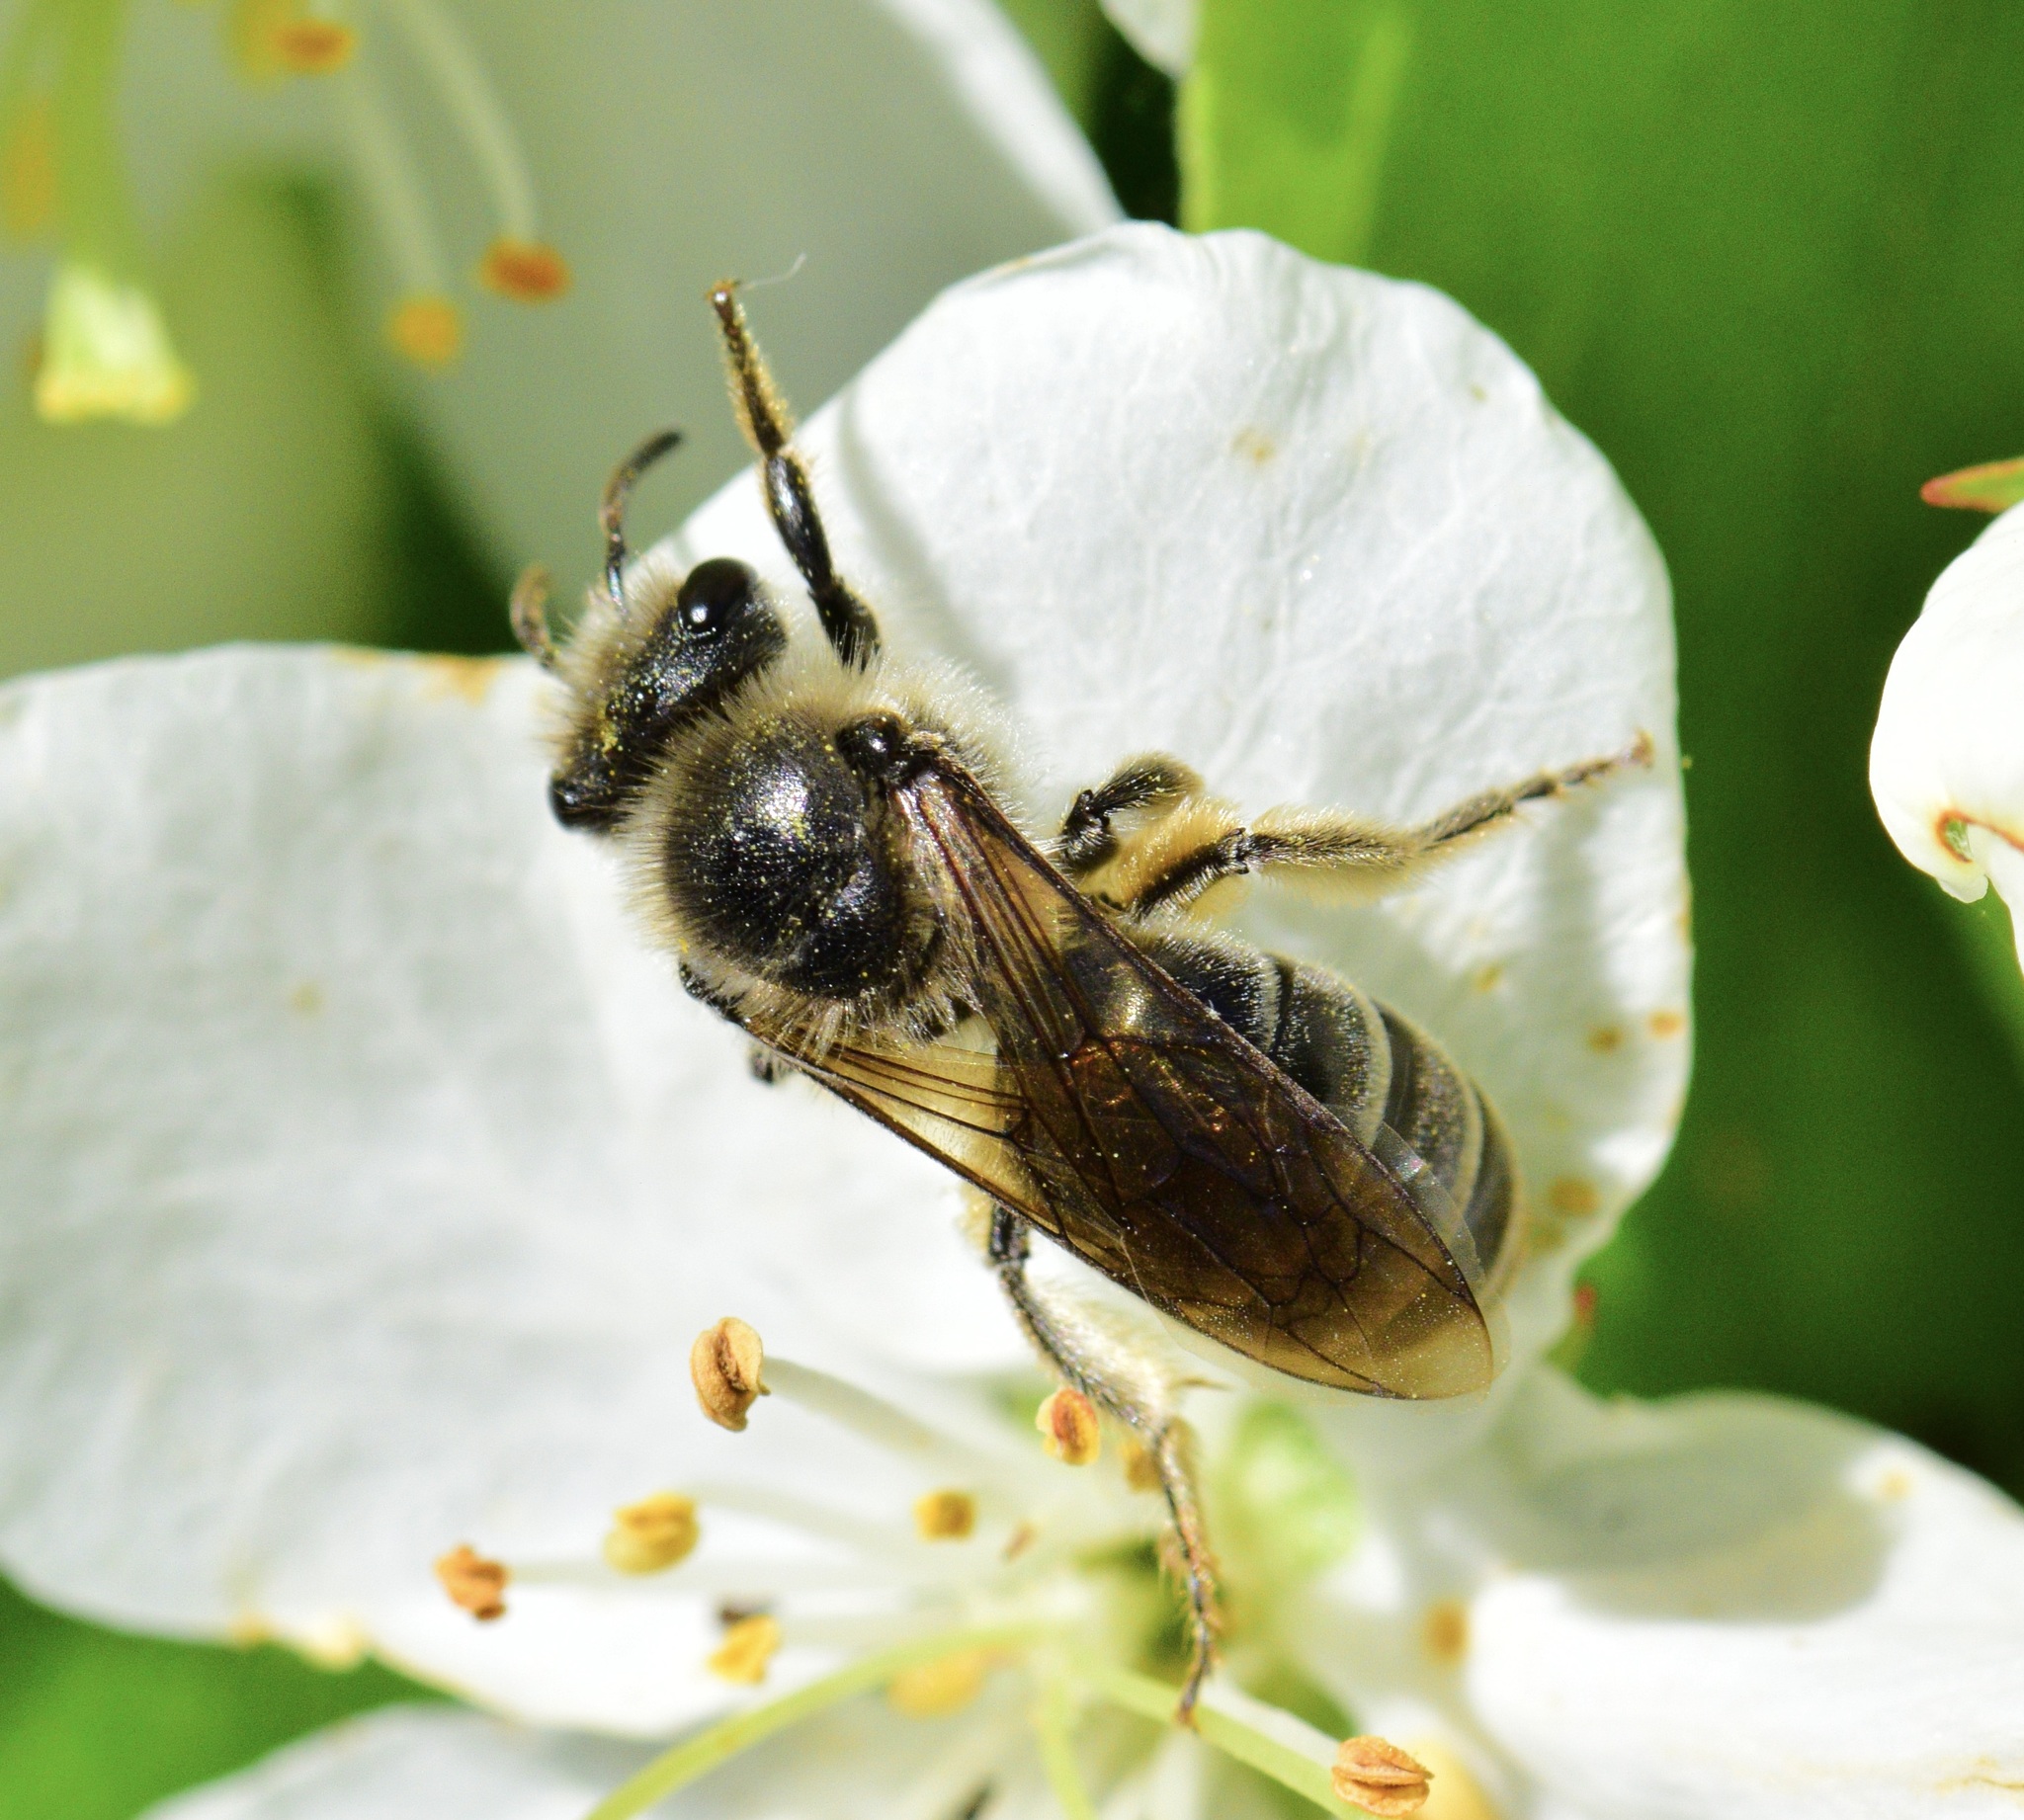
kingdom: Animalia
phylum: Arthropoda
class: Insecta
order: Hymenoptera
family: Colletidae
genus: Colletes
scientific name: Colletes inaequalis
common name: Unequal cellophane bee
